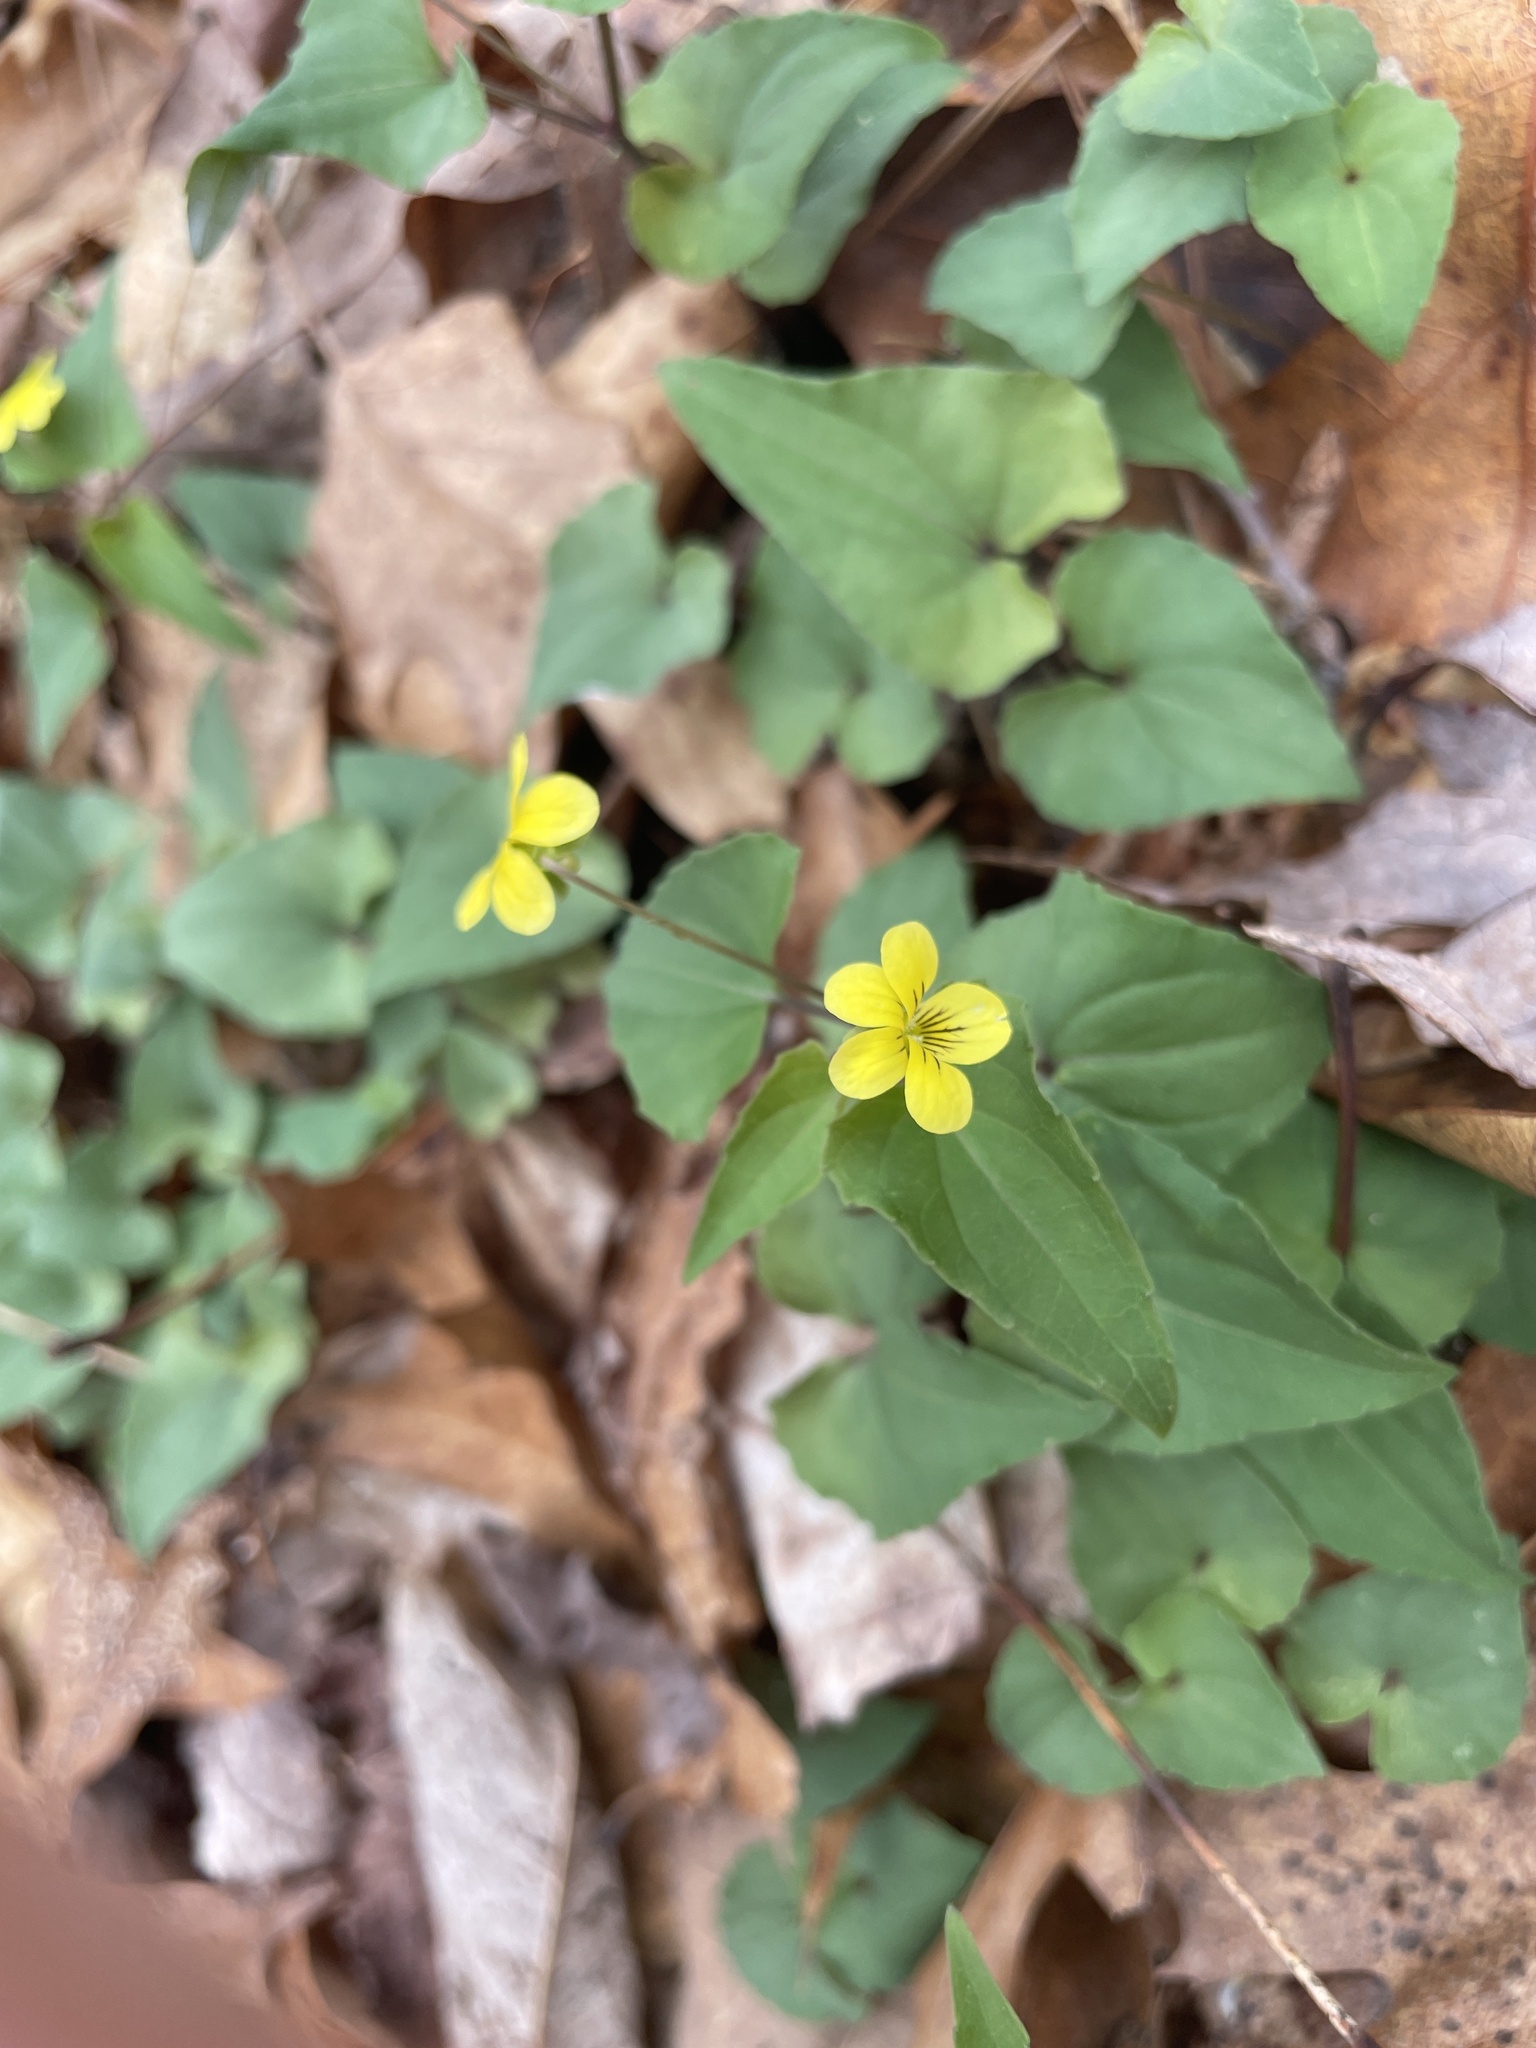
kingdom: Plantae
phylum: Tracheophyta
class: Magnoliopsida
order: Malpighiales
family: Violaceae
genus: Viola
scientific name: Viola hastata
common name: Spear-leaf violet
